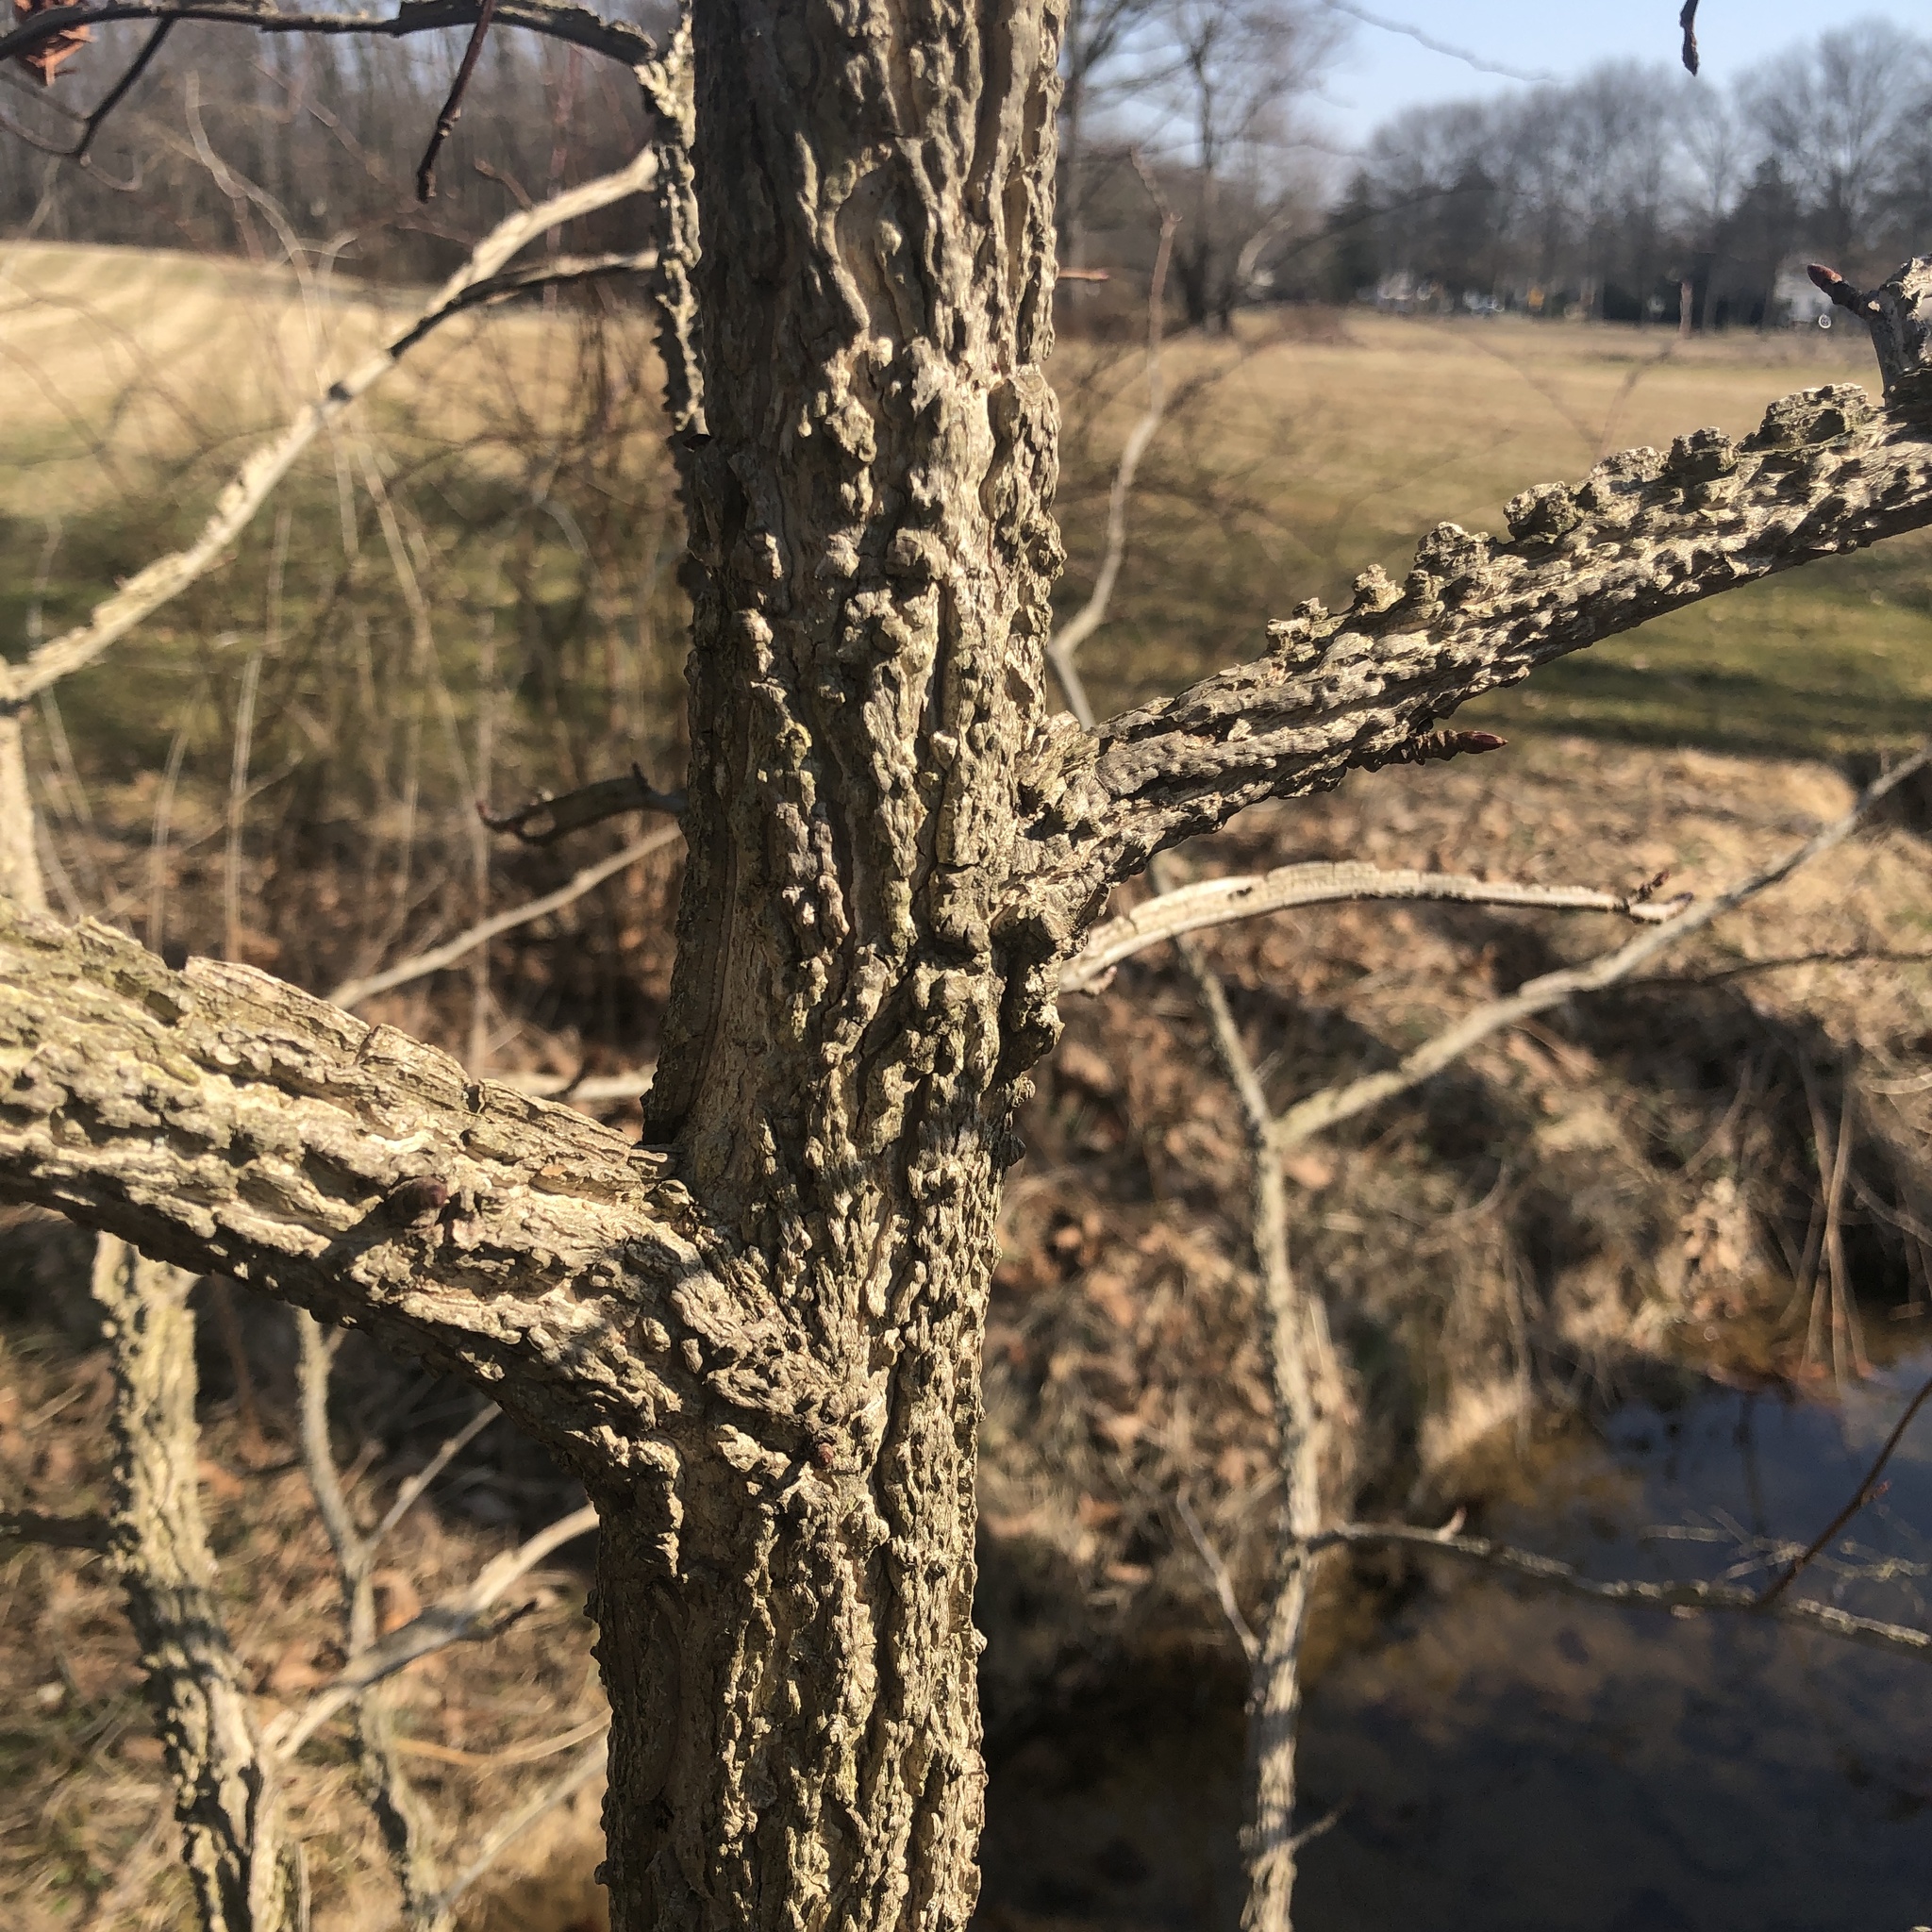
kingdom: Plantae
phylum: Tracheophyta
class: Magnoliopsida
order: Saxifragales
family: Altingiaceae
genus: Liquidambar
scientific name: Liquidambar styraciflua
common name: Sweet gum
